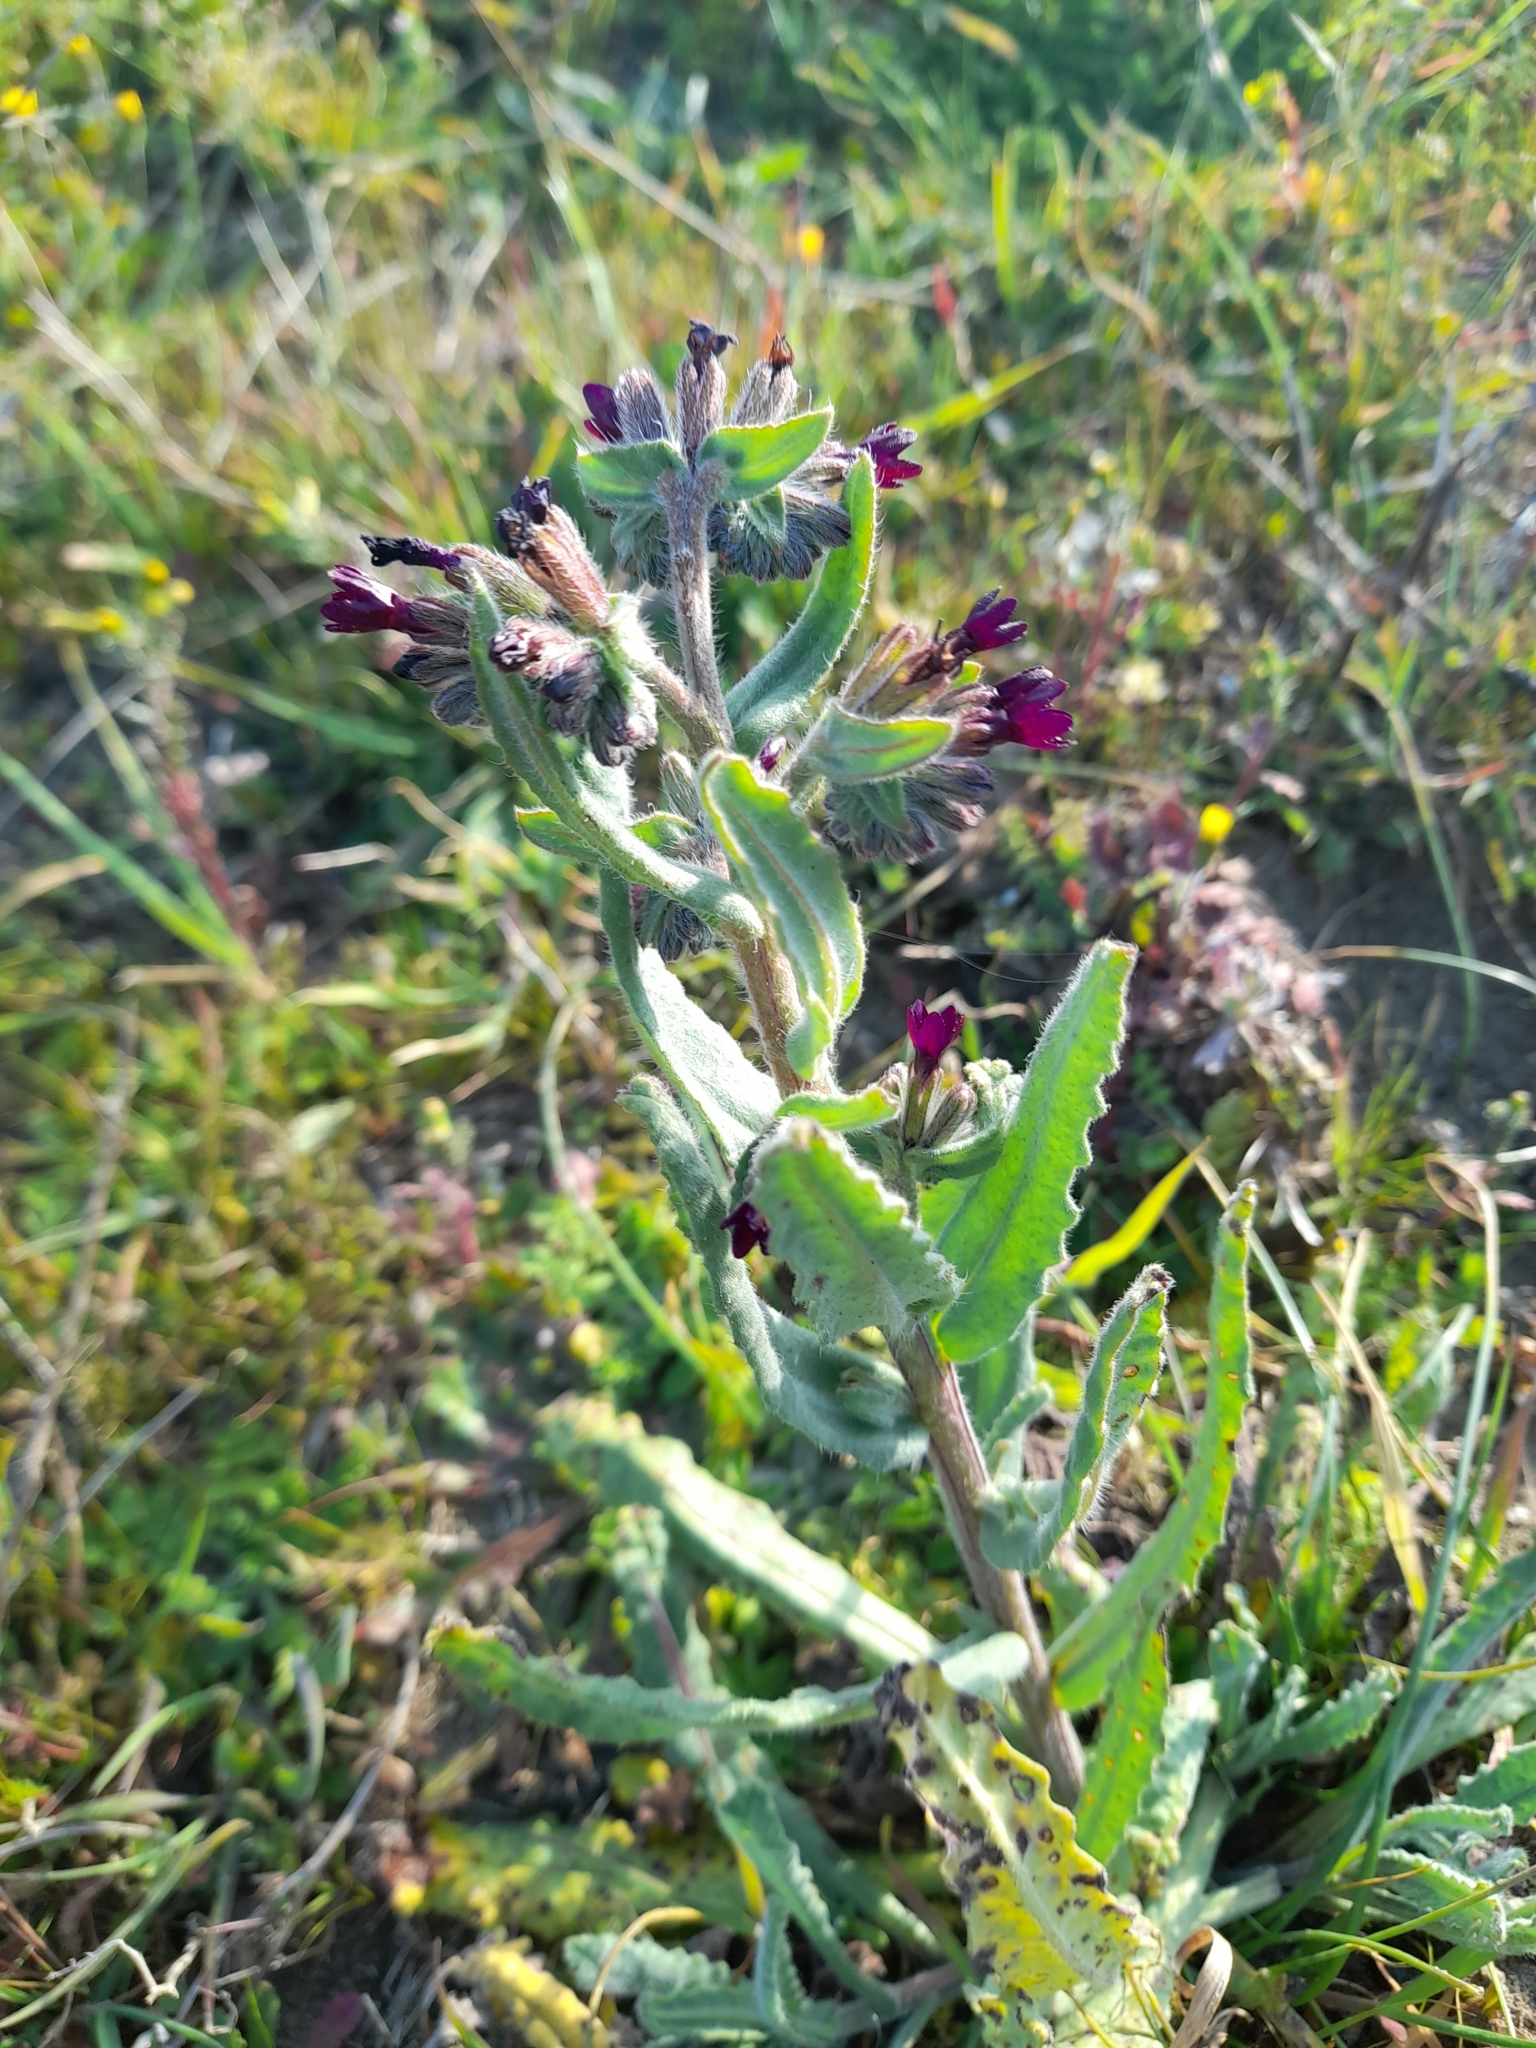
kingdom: Plantae
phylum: Tracheophyta
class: Magnoliopsida
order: Boraginales
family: Boraginaceae
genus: Anchusa
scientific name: Anchusa hybrida
